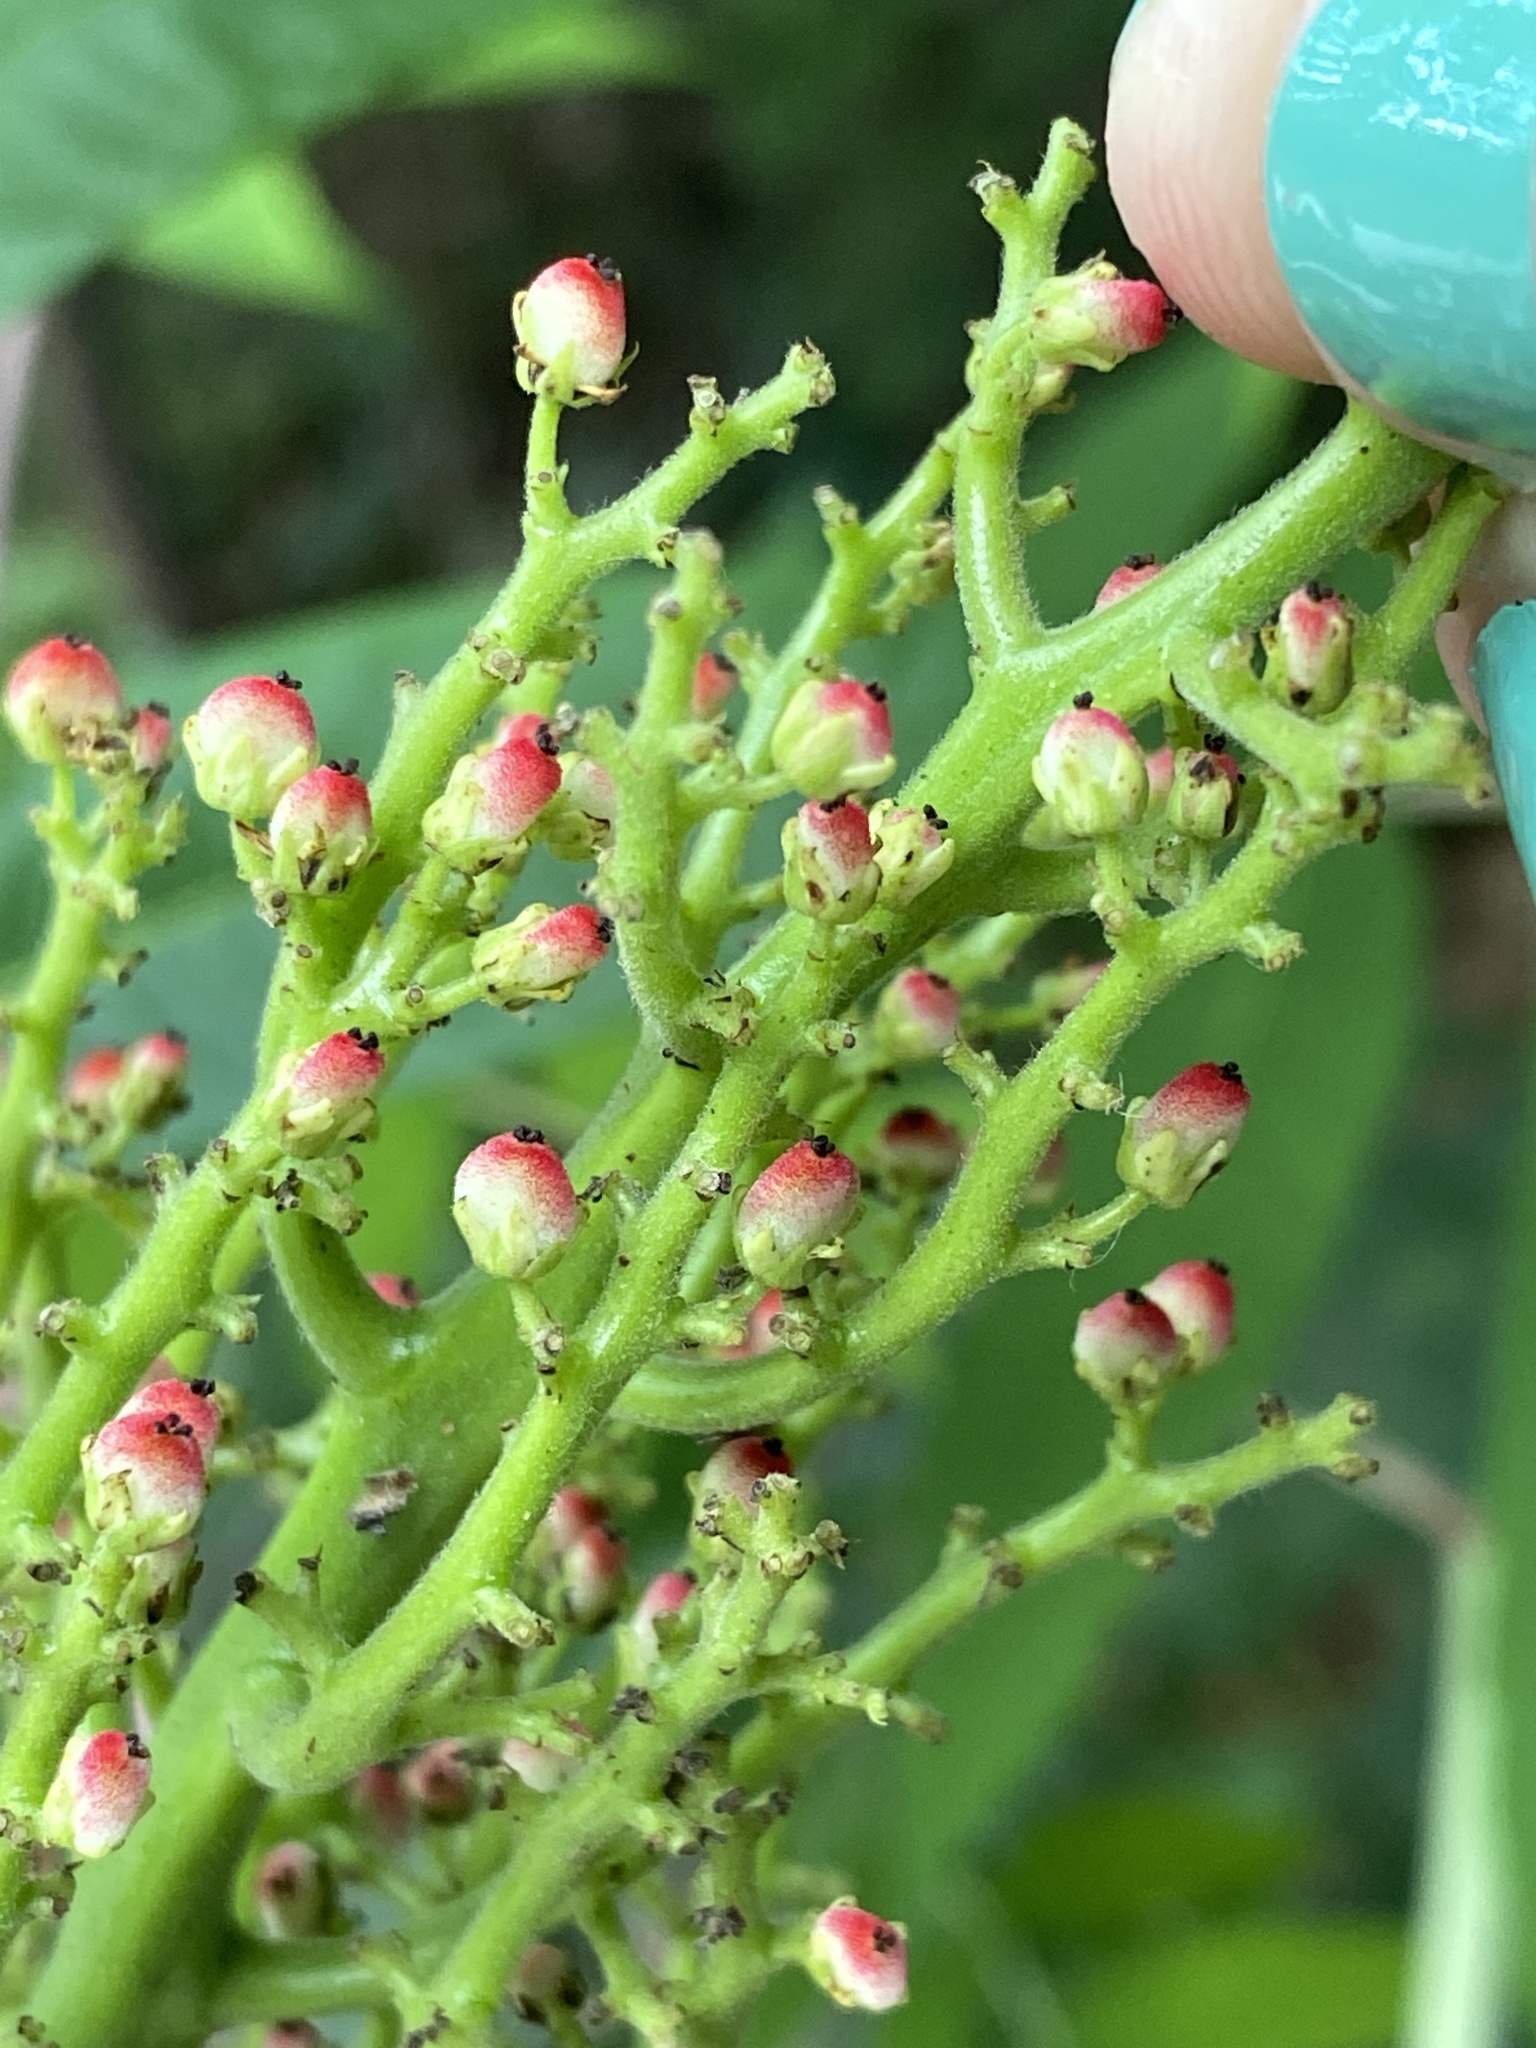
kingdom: Plantae
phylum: Tracheophyta
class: Magnoliopsida
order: Sapindales
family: Anacardiaceae
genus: Rhus
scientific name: Rhus glabra
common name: Scarlet sumac
